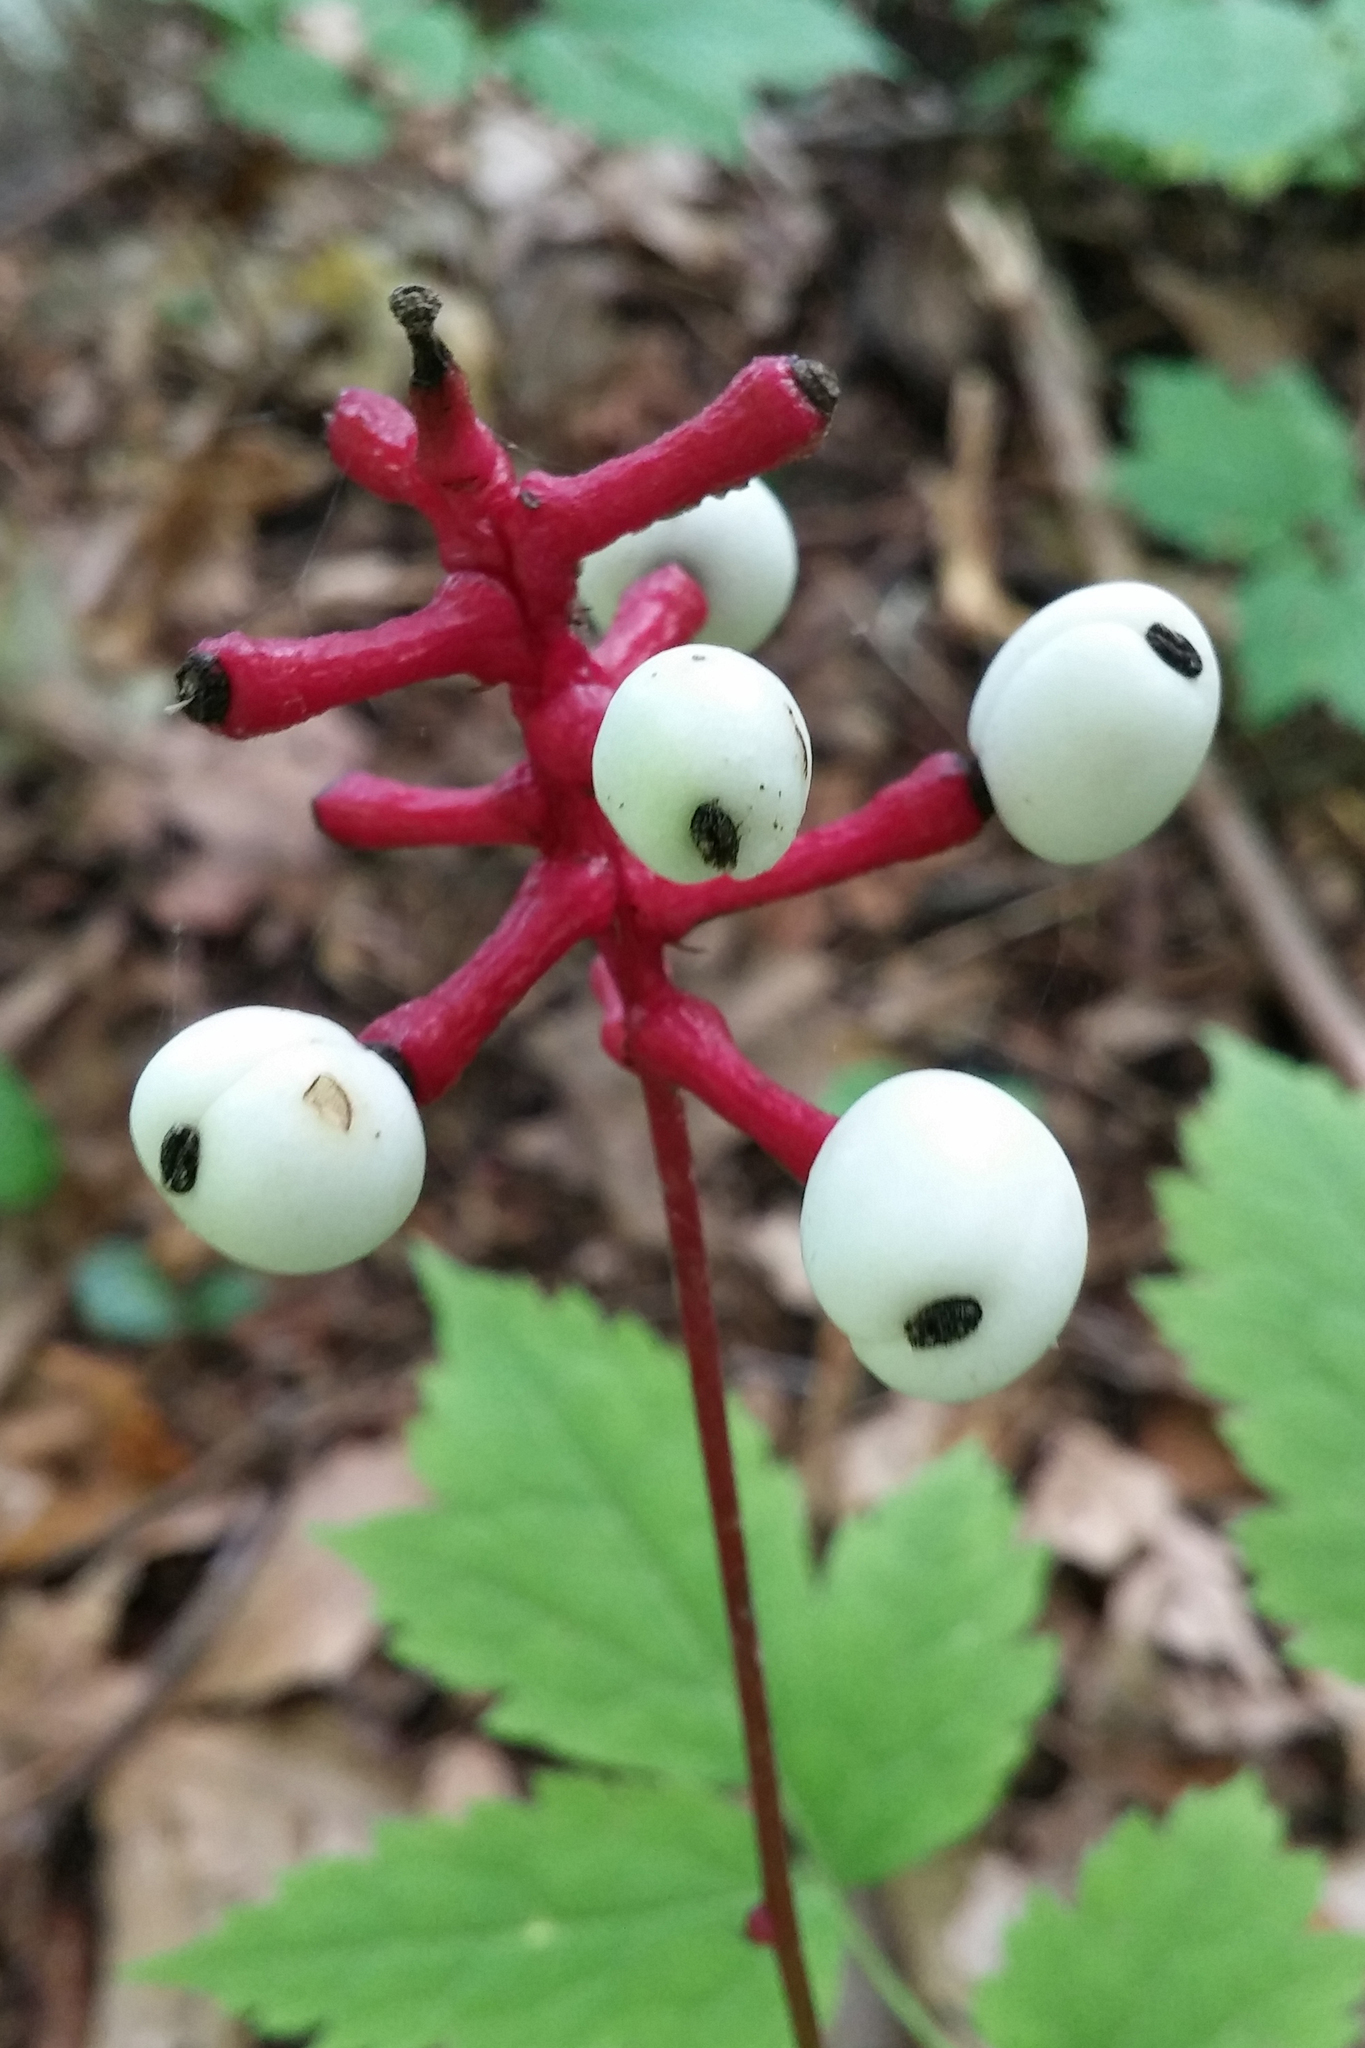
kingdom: Plantae
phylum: Tracheophyta
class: Magnoliopsida
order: Ranunculales
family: Ranunculaceae
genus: Actaea
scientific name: Actaea pachypoda
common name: Doll's-eyes
